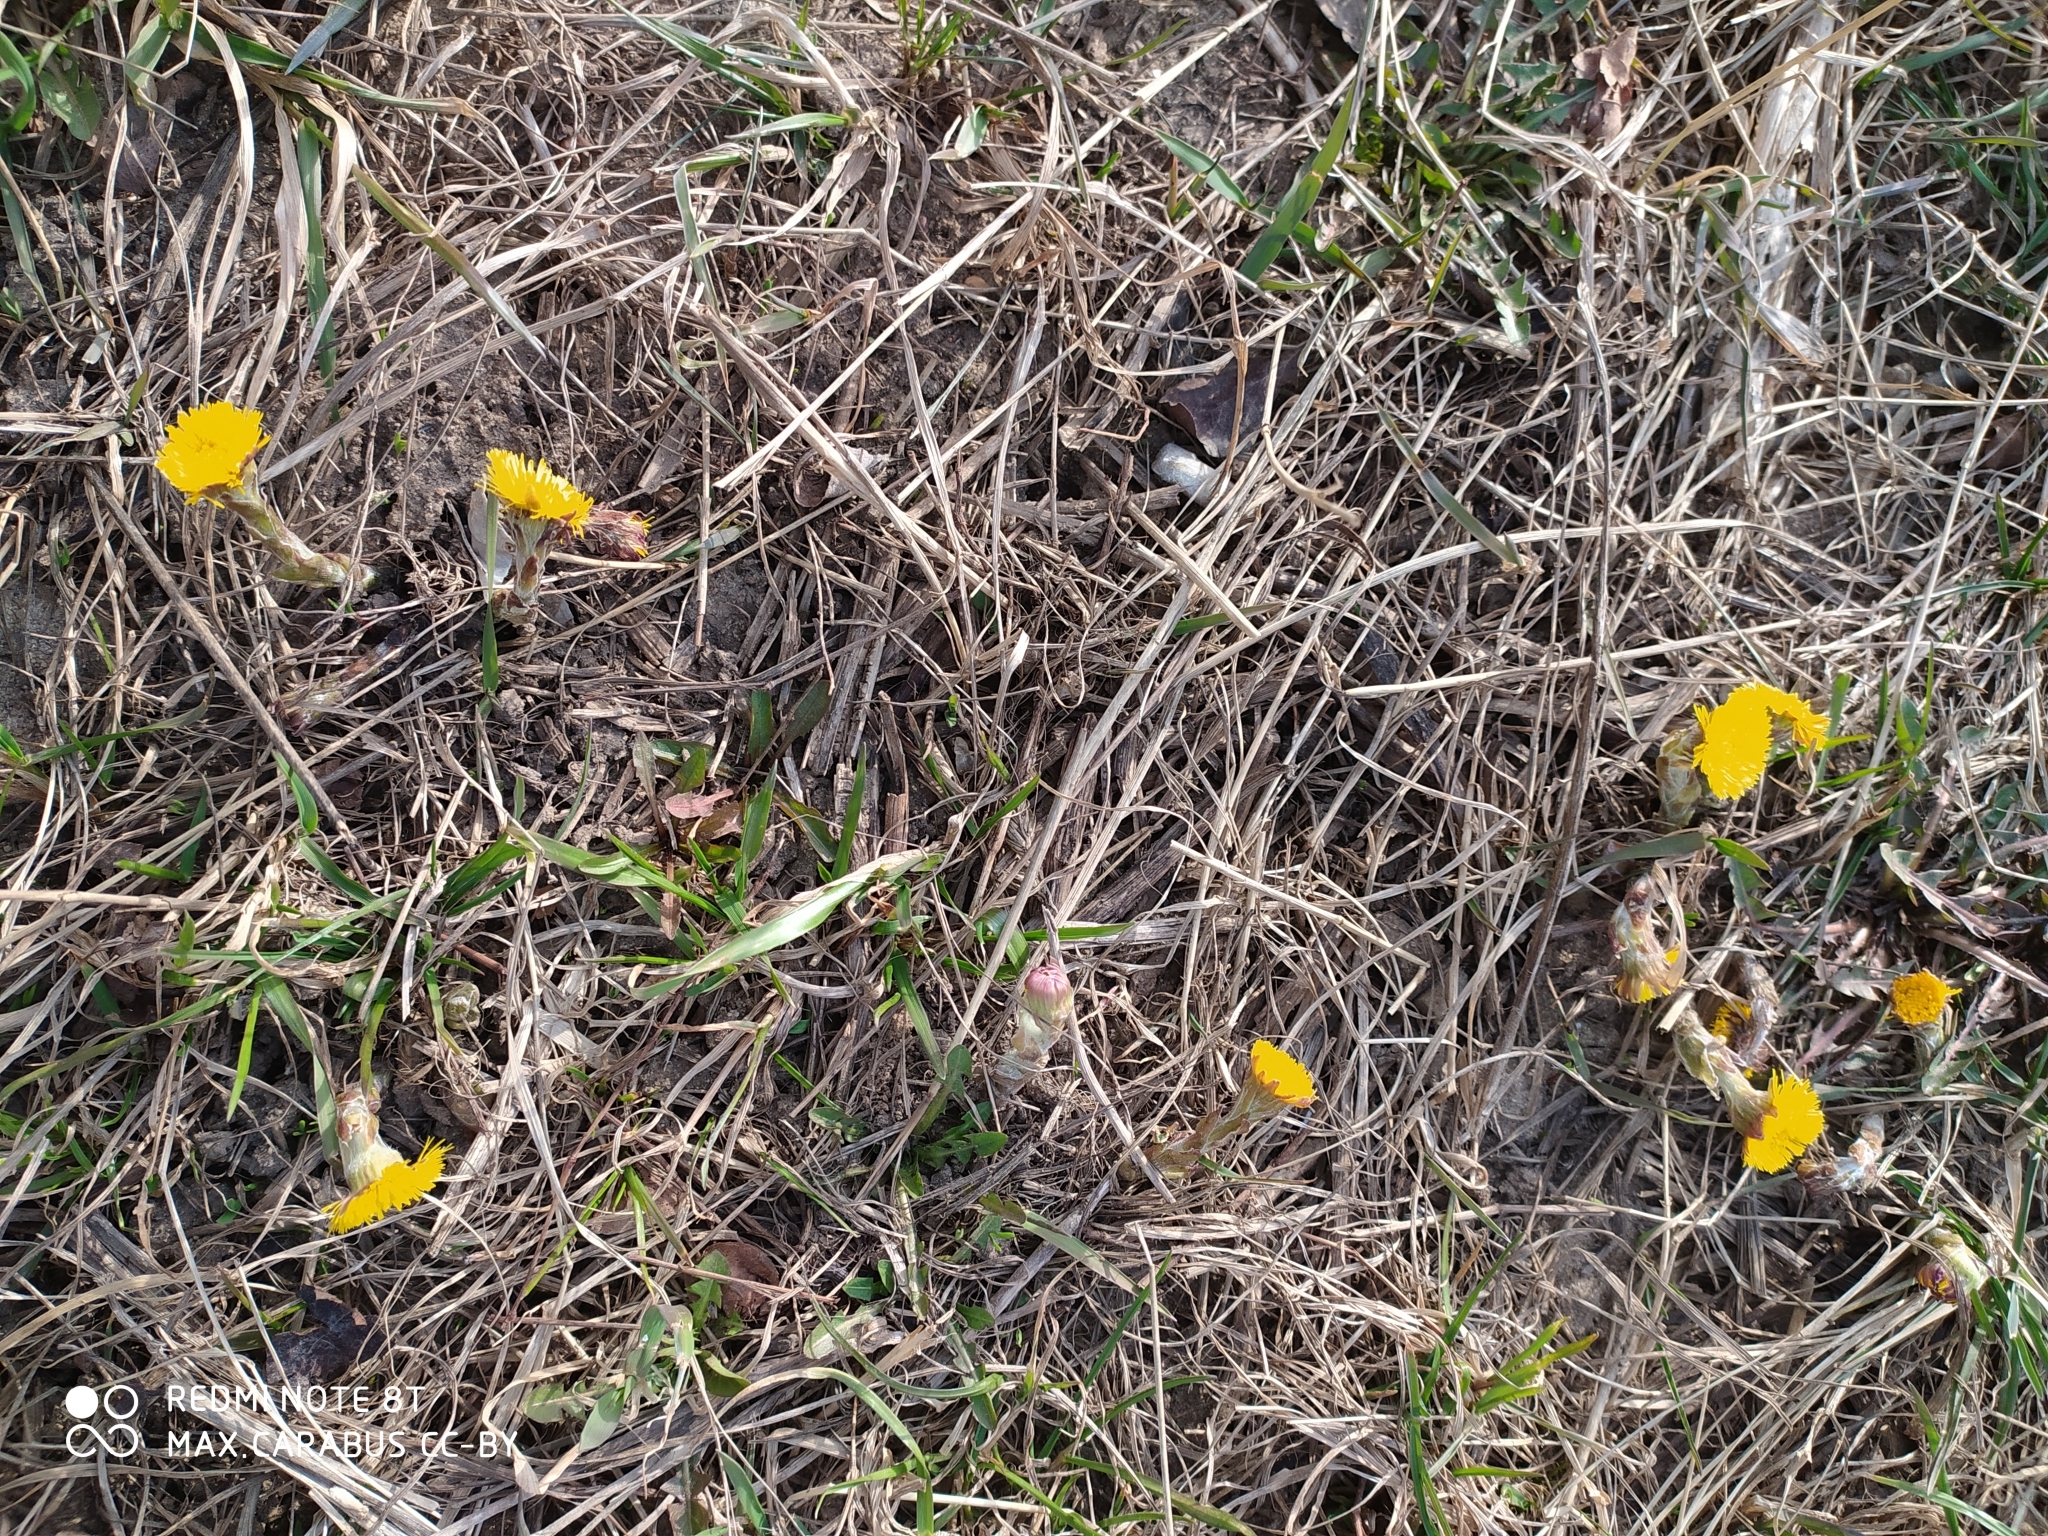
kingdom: Plantae
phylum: Tracheophyta
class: Magnoliopsida
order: Asterales
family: Asteraceae
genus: Tussilago
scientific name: Tussilago farfara
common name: Coltsfoot
